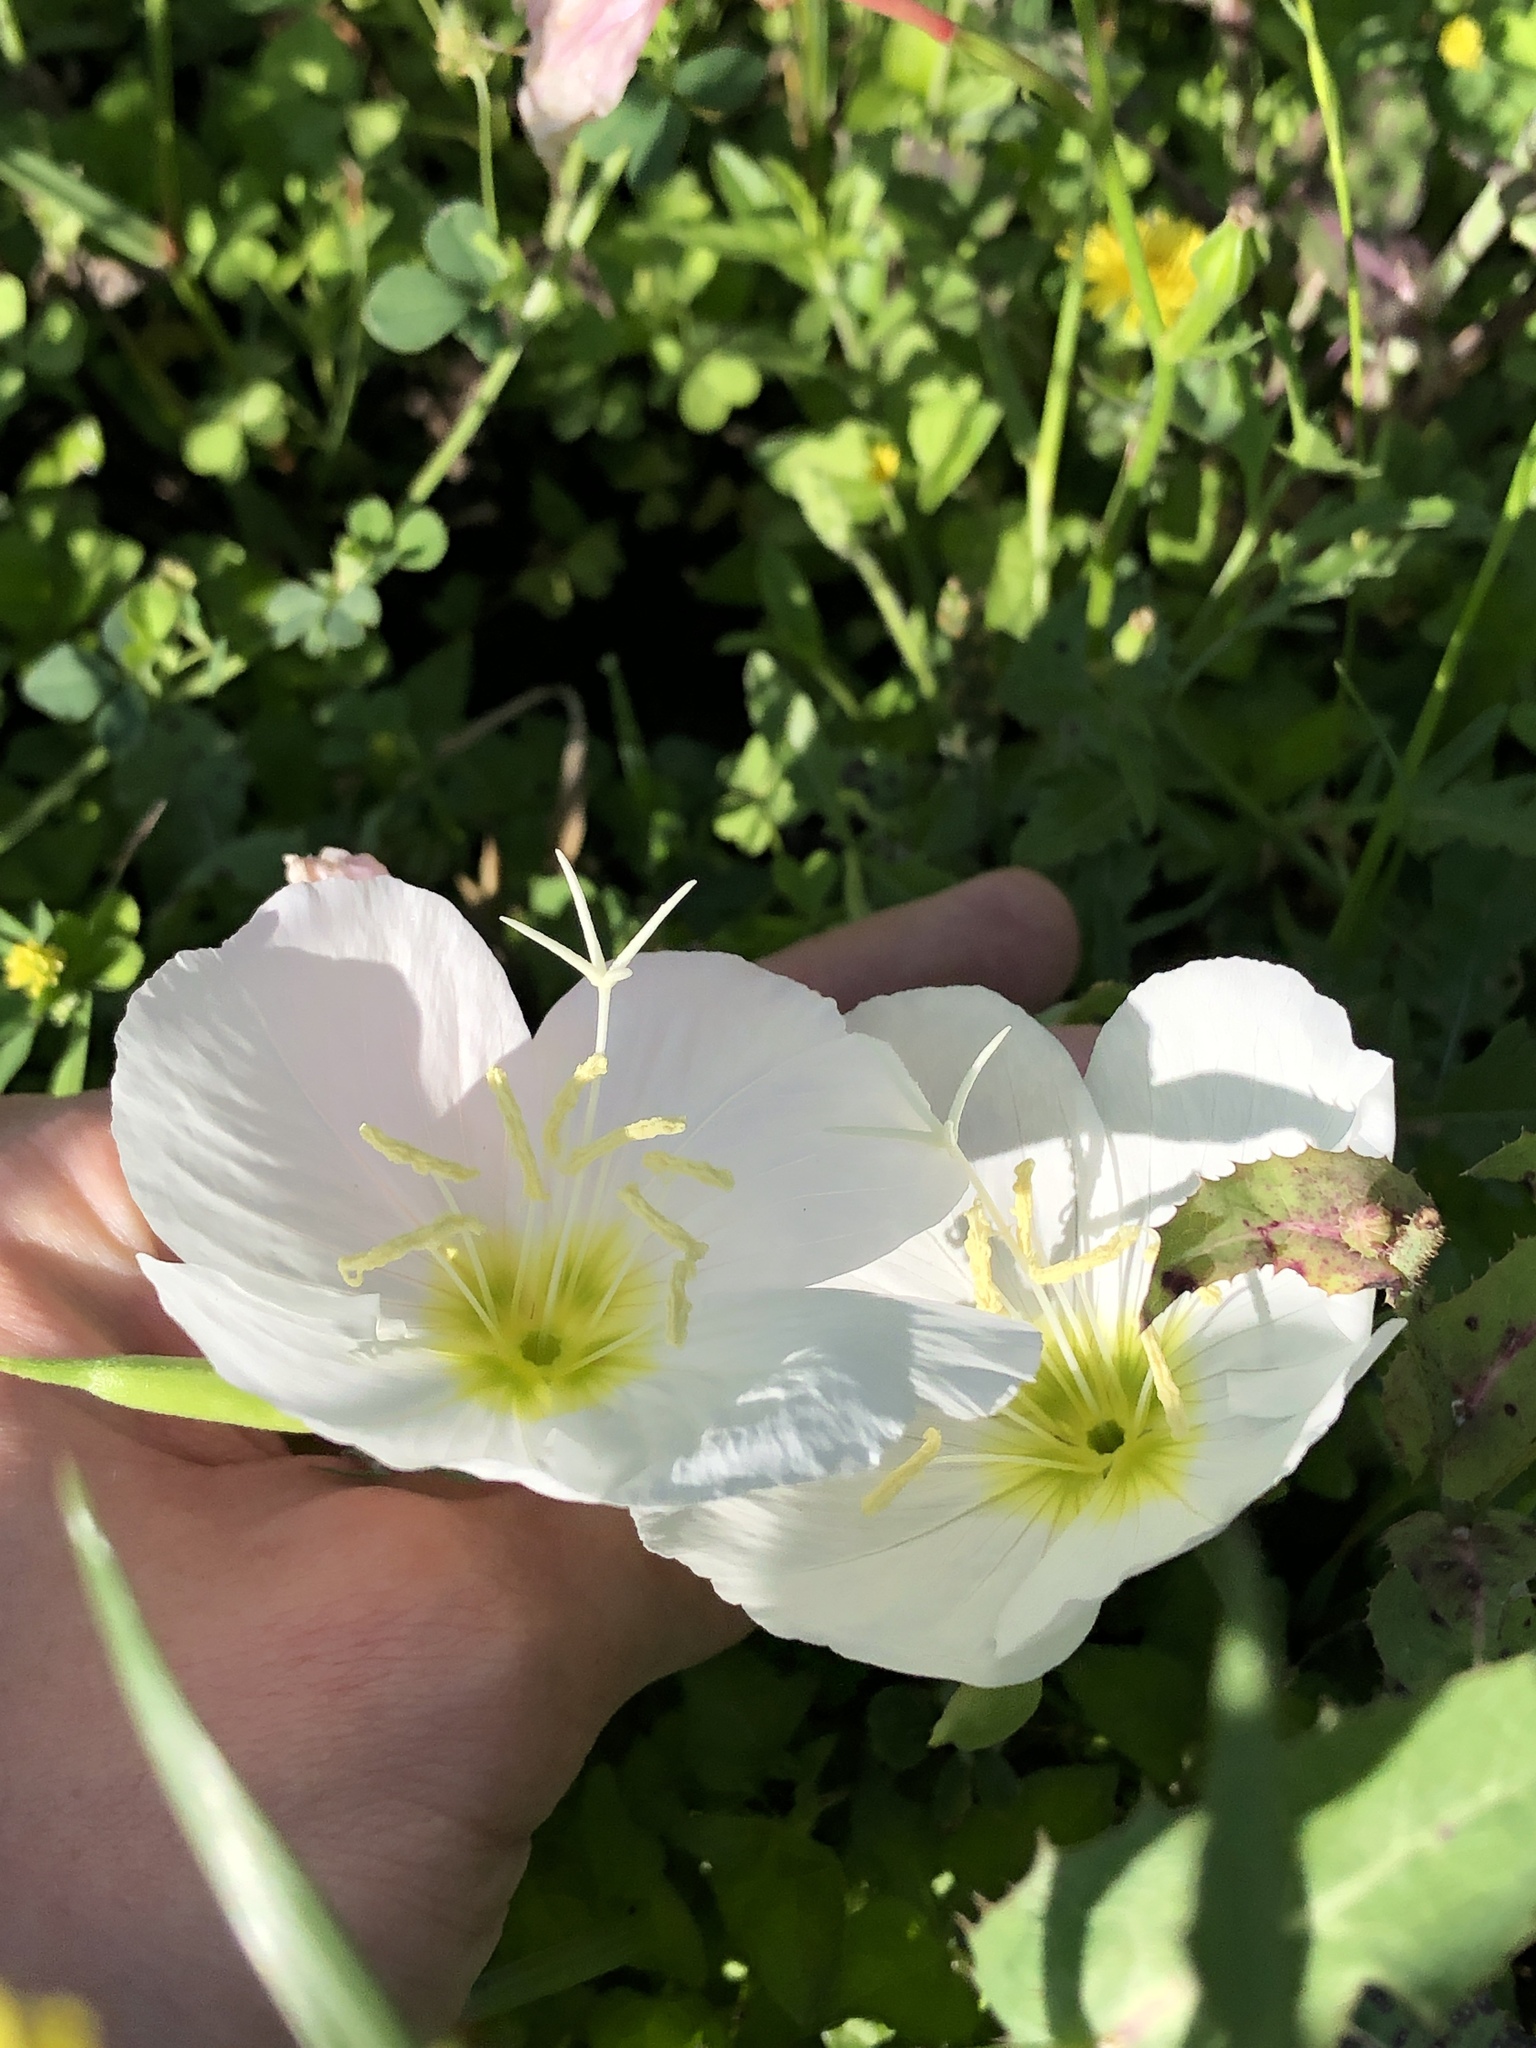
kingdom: Plantae
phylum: Tracheophyta
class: Magnoliopsida
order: Myrtales
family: Onagraceae
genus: Oenothera
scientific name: Oenothera speciosa
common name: White evening-primrose
